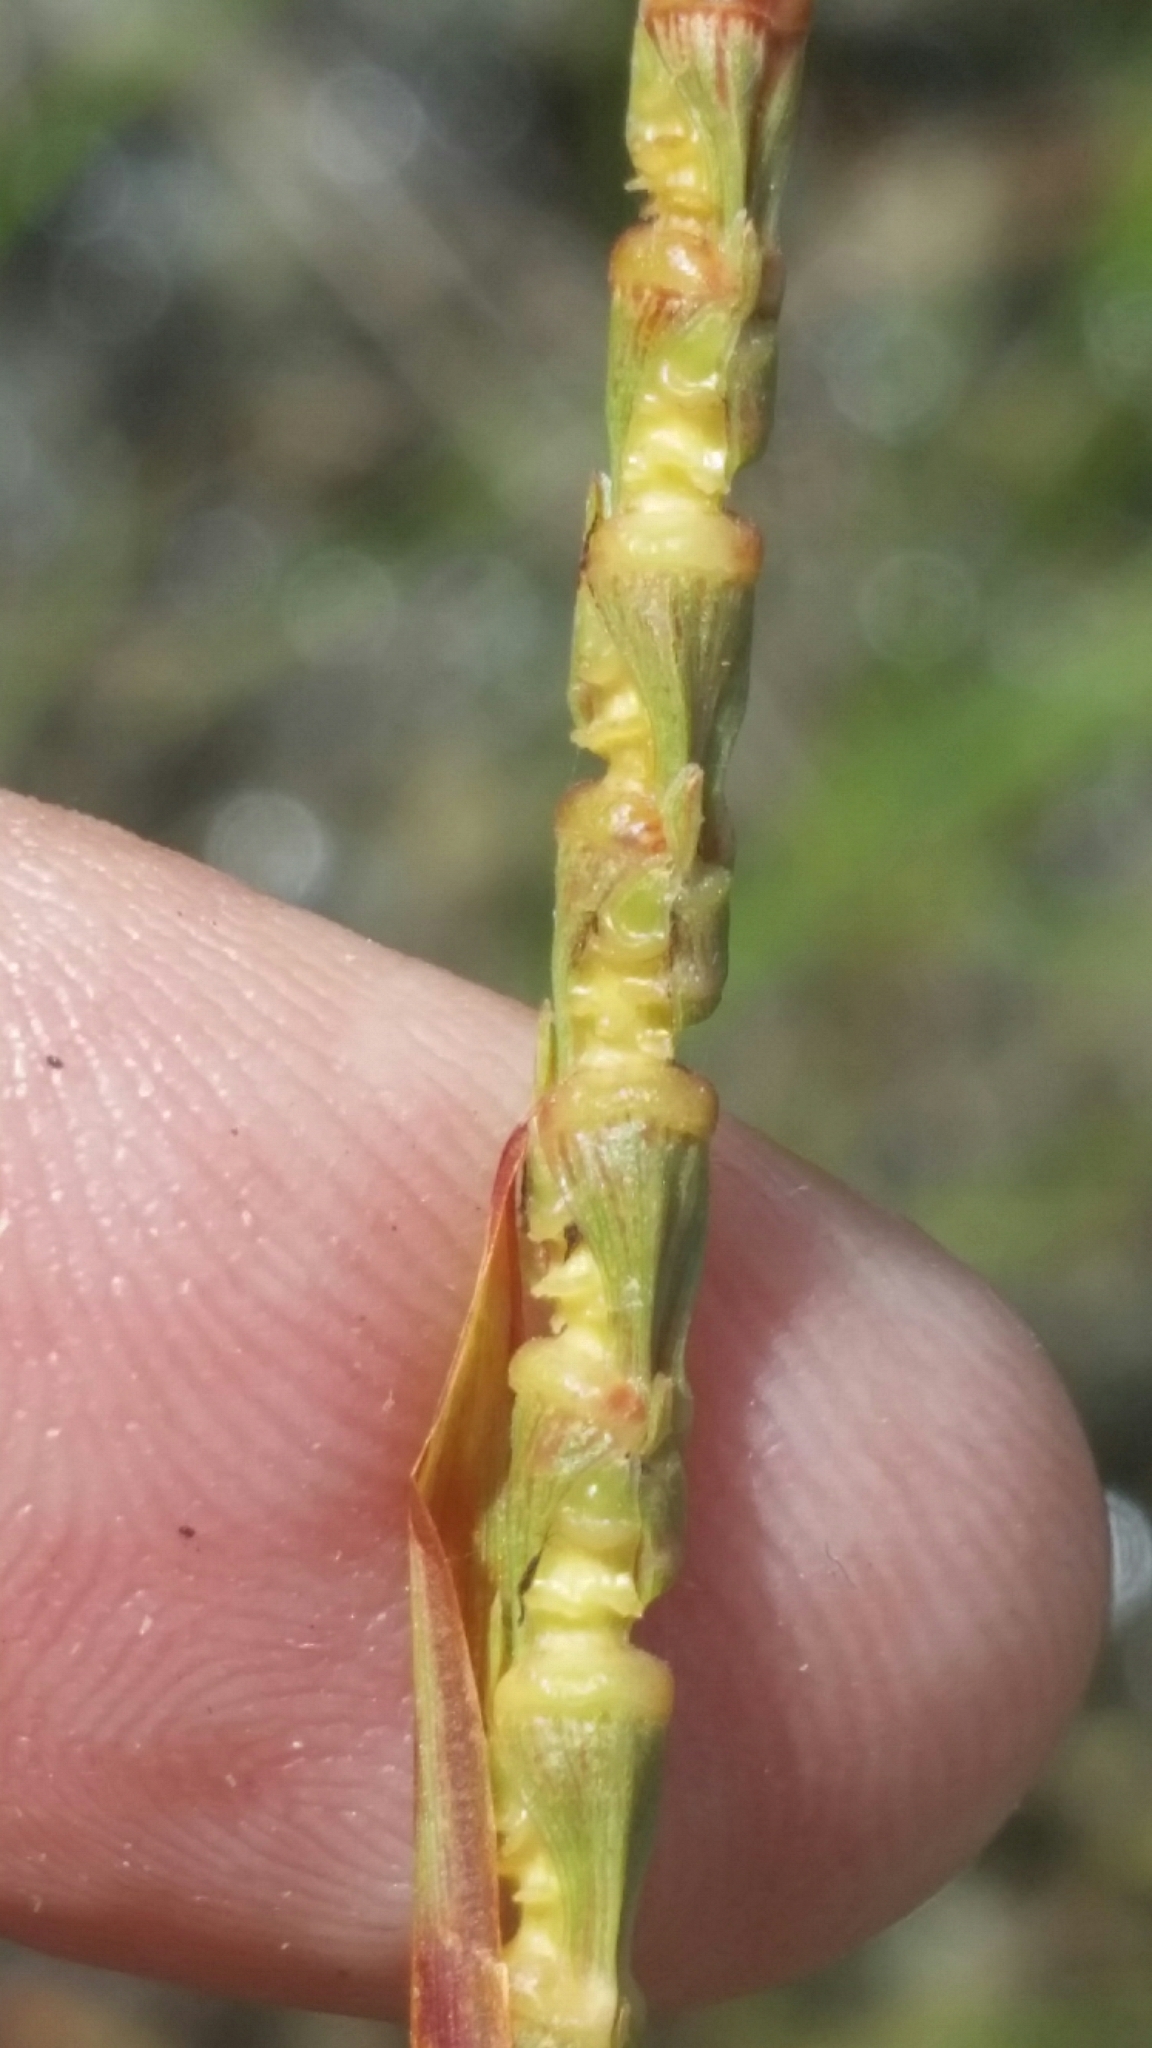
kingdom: Plantae
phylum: Tracheophyta
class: Liliopsida
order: Poales
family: Poaceae
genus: Rottboellia
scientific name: Rottboellia rugosa
